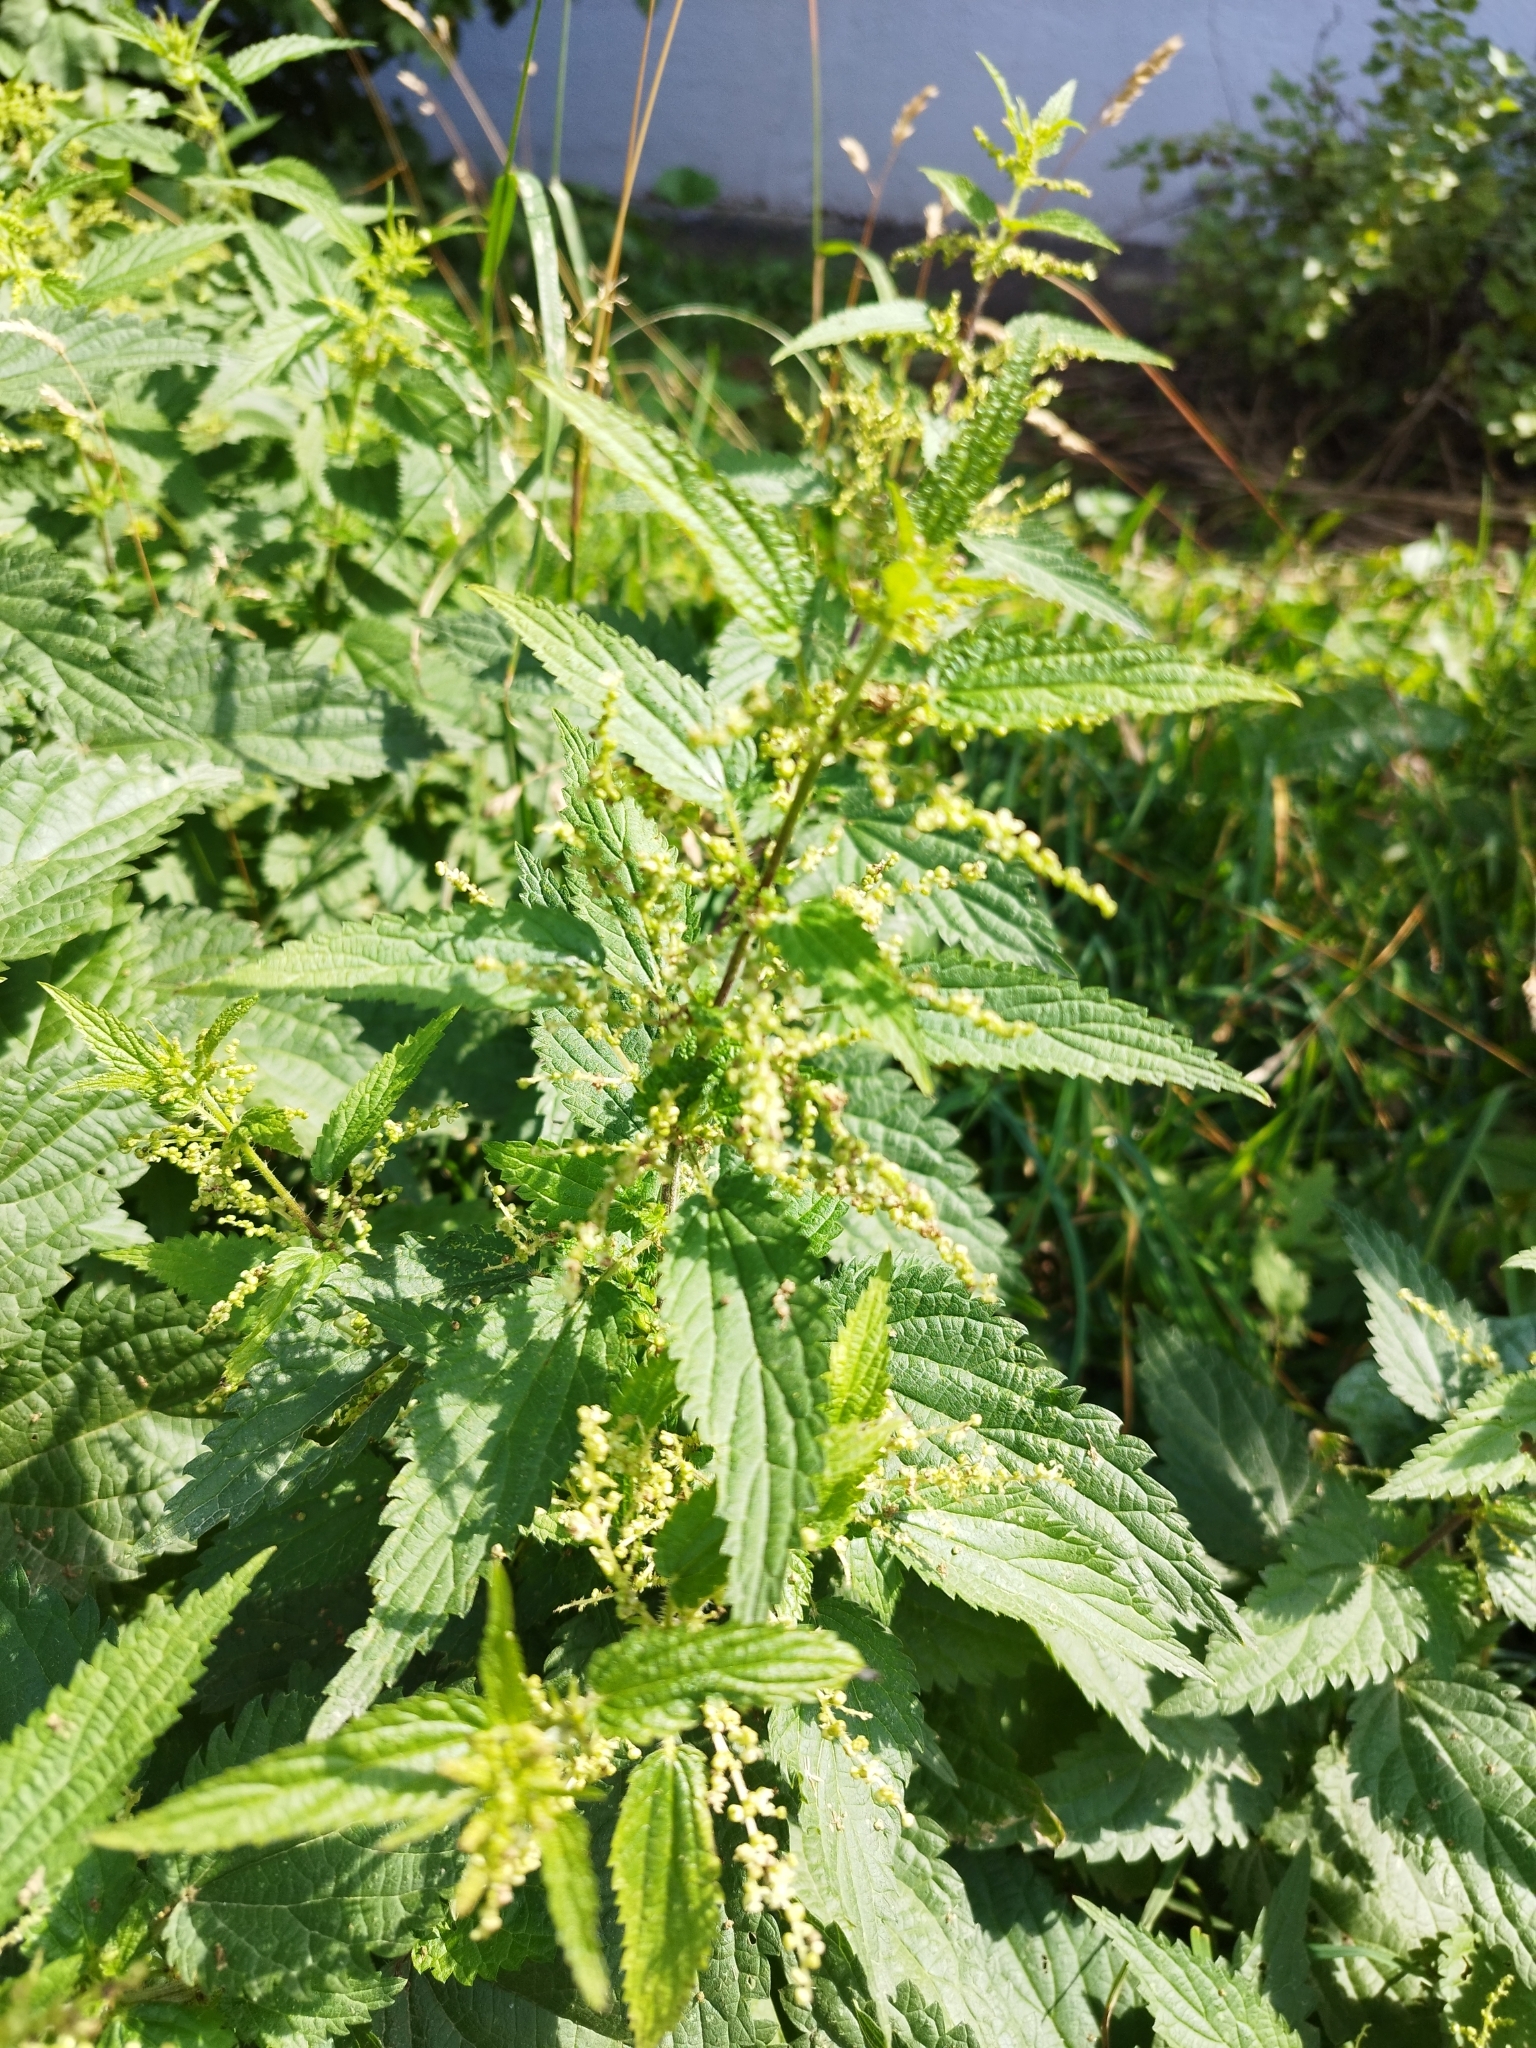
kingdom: Plantae
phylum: Tracheophyta
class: Magnoliopsida
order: Rosales
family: Urticaceae
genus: Urtica
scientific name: Urtica dioica
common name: Common nettle
